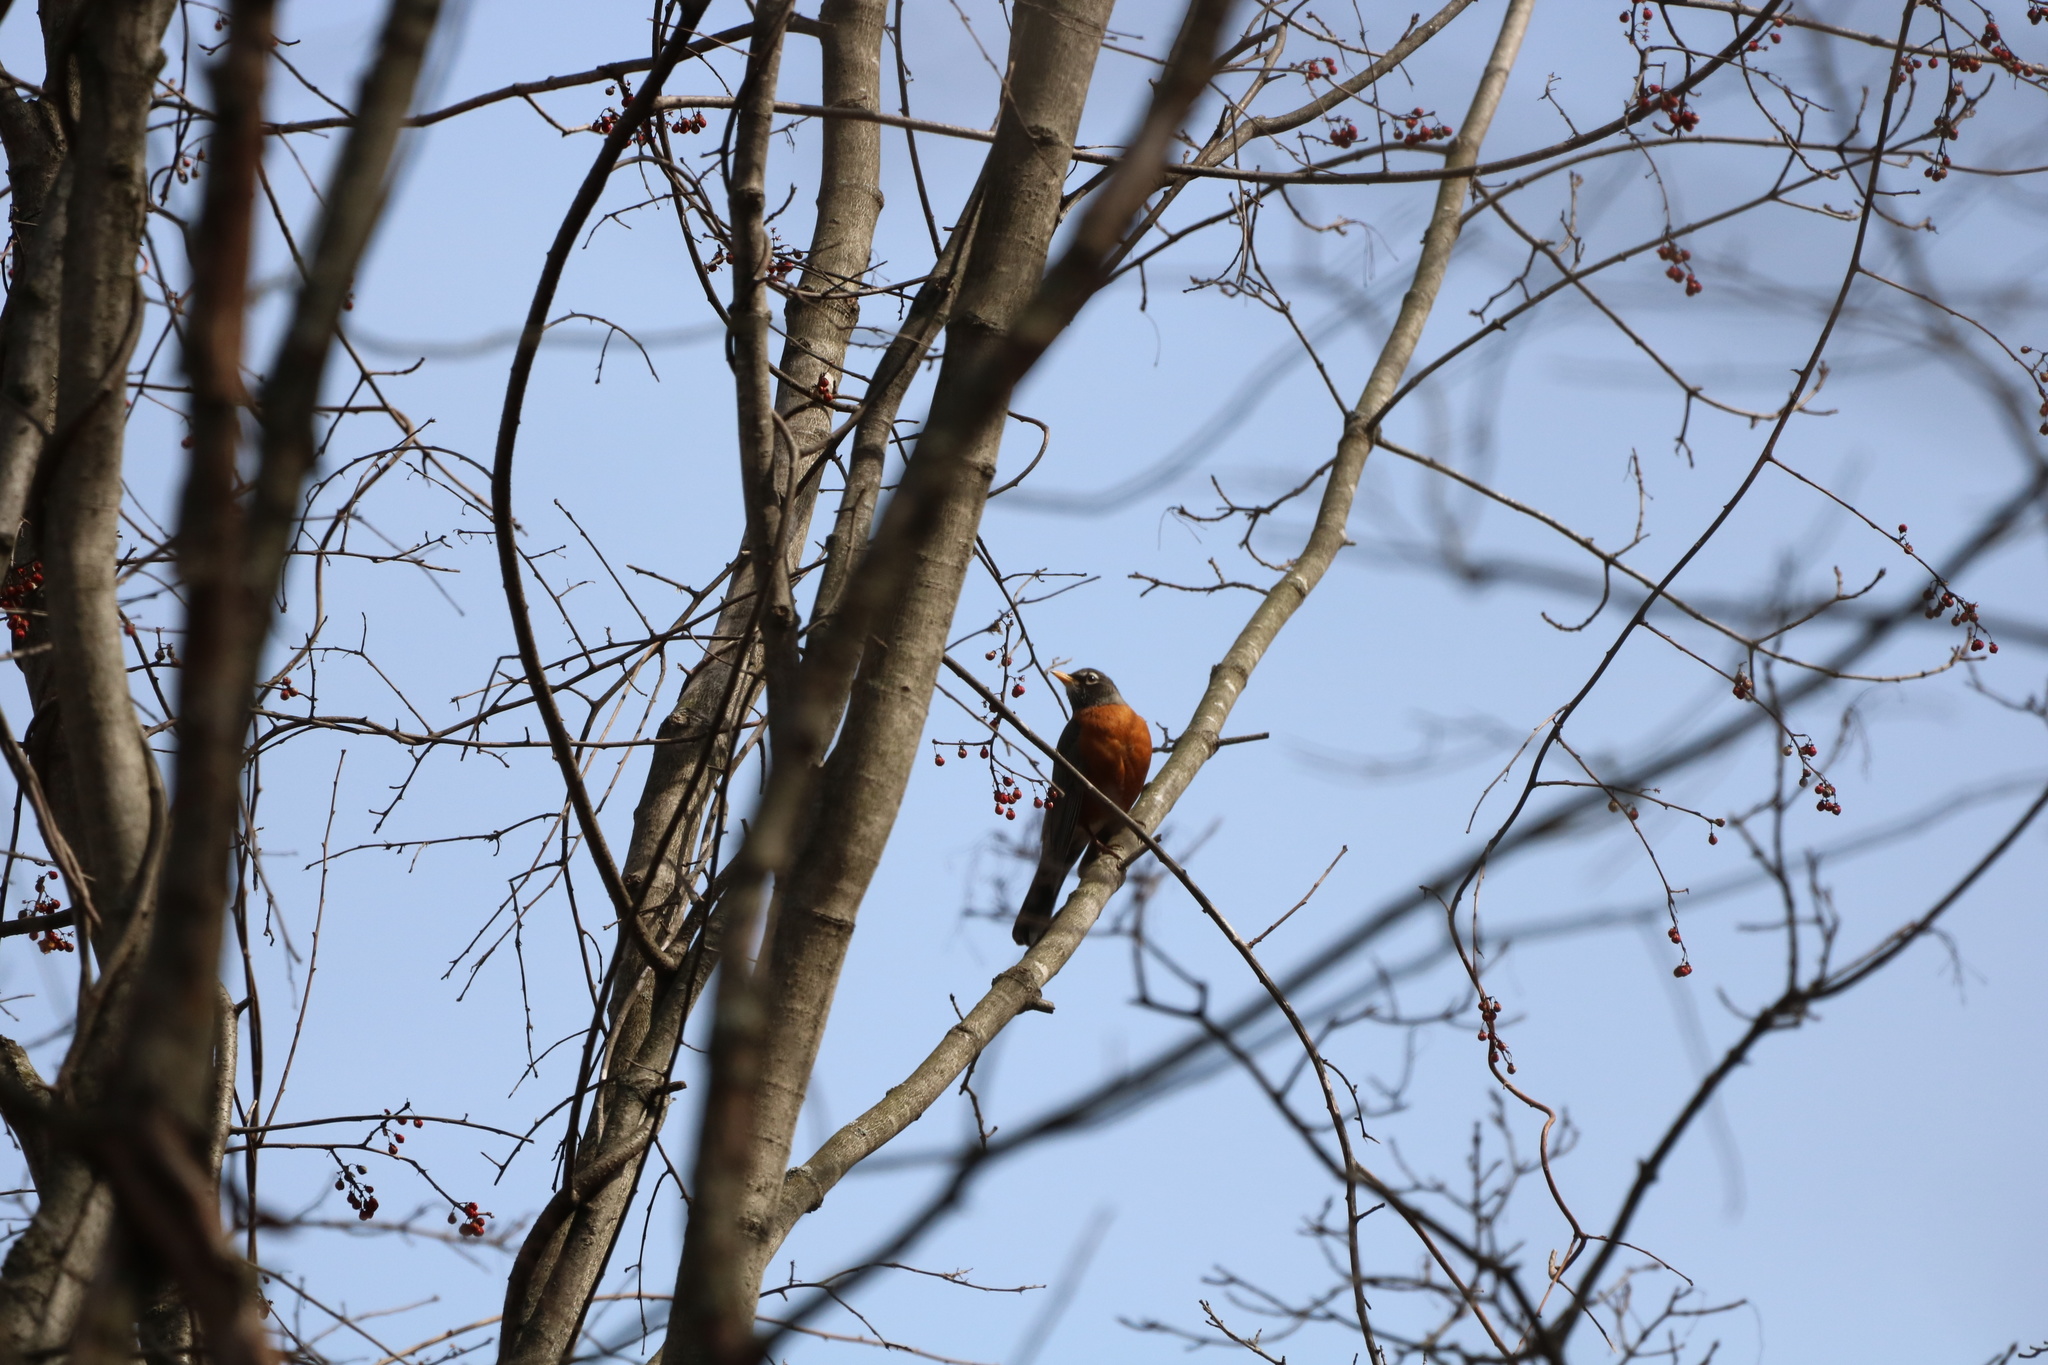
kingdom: Animalia
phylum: Chordata
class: Aves
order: Passeriformes
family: Turdidae
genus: Turdus
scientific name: Turdus migratorius
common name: American robin
